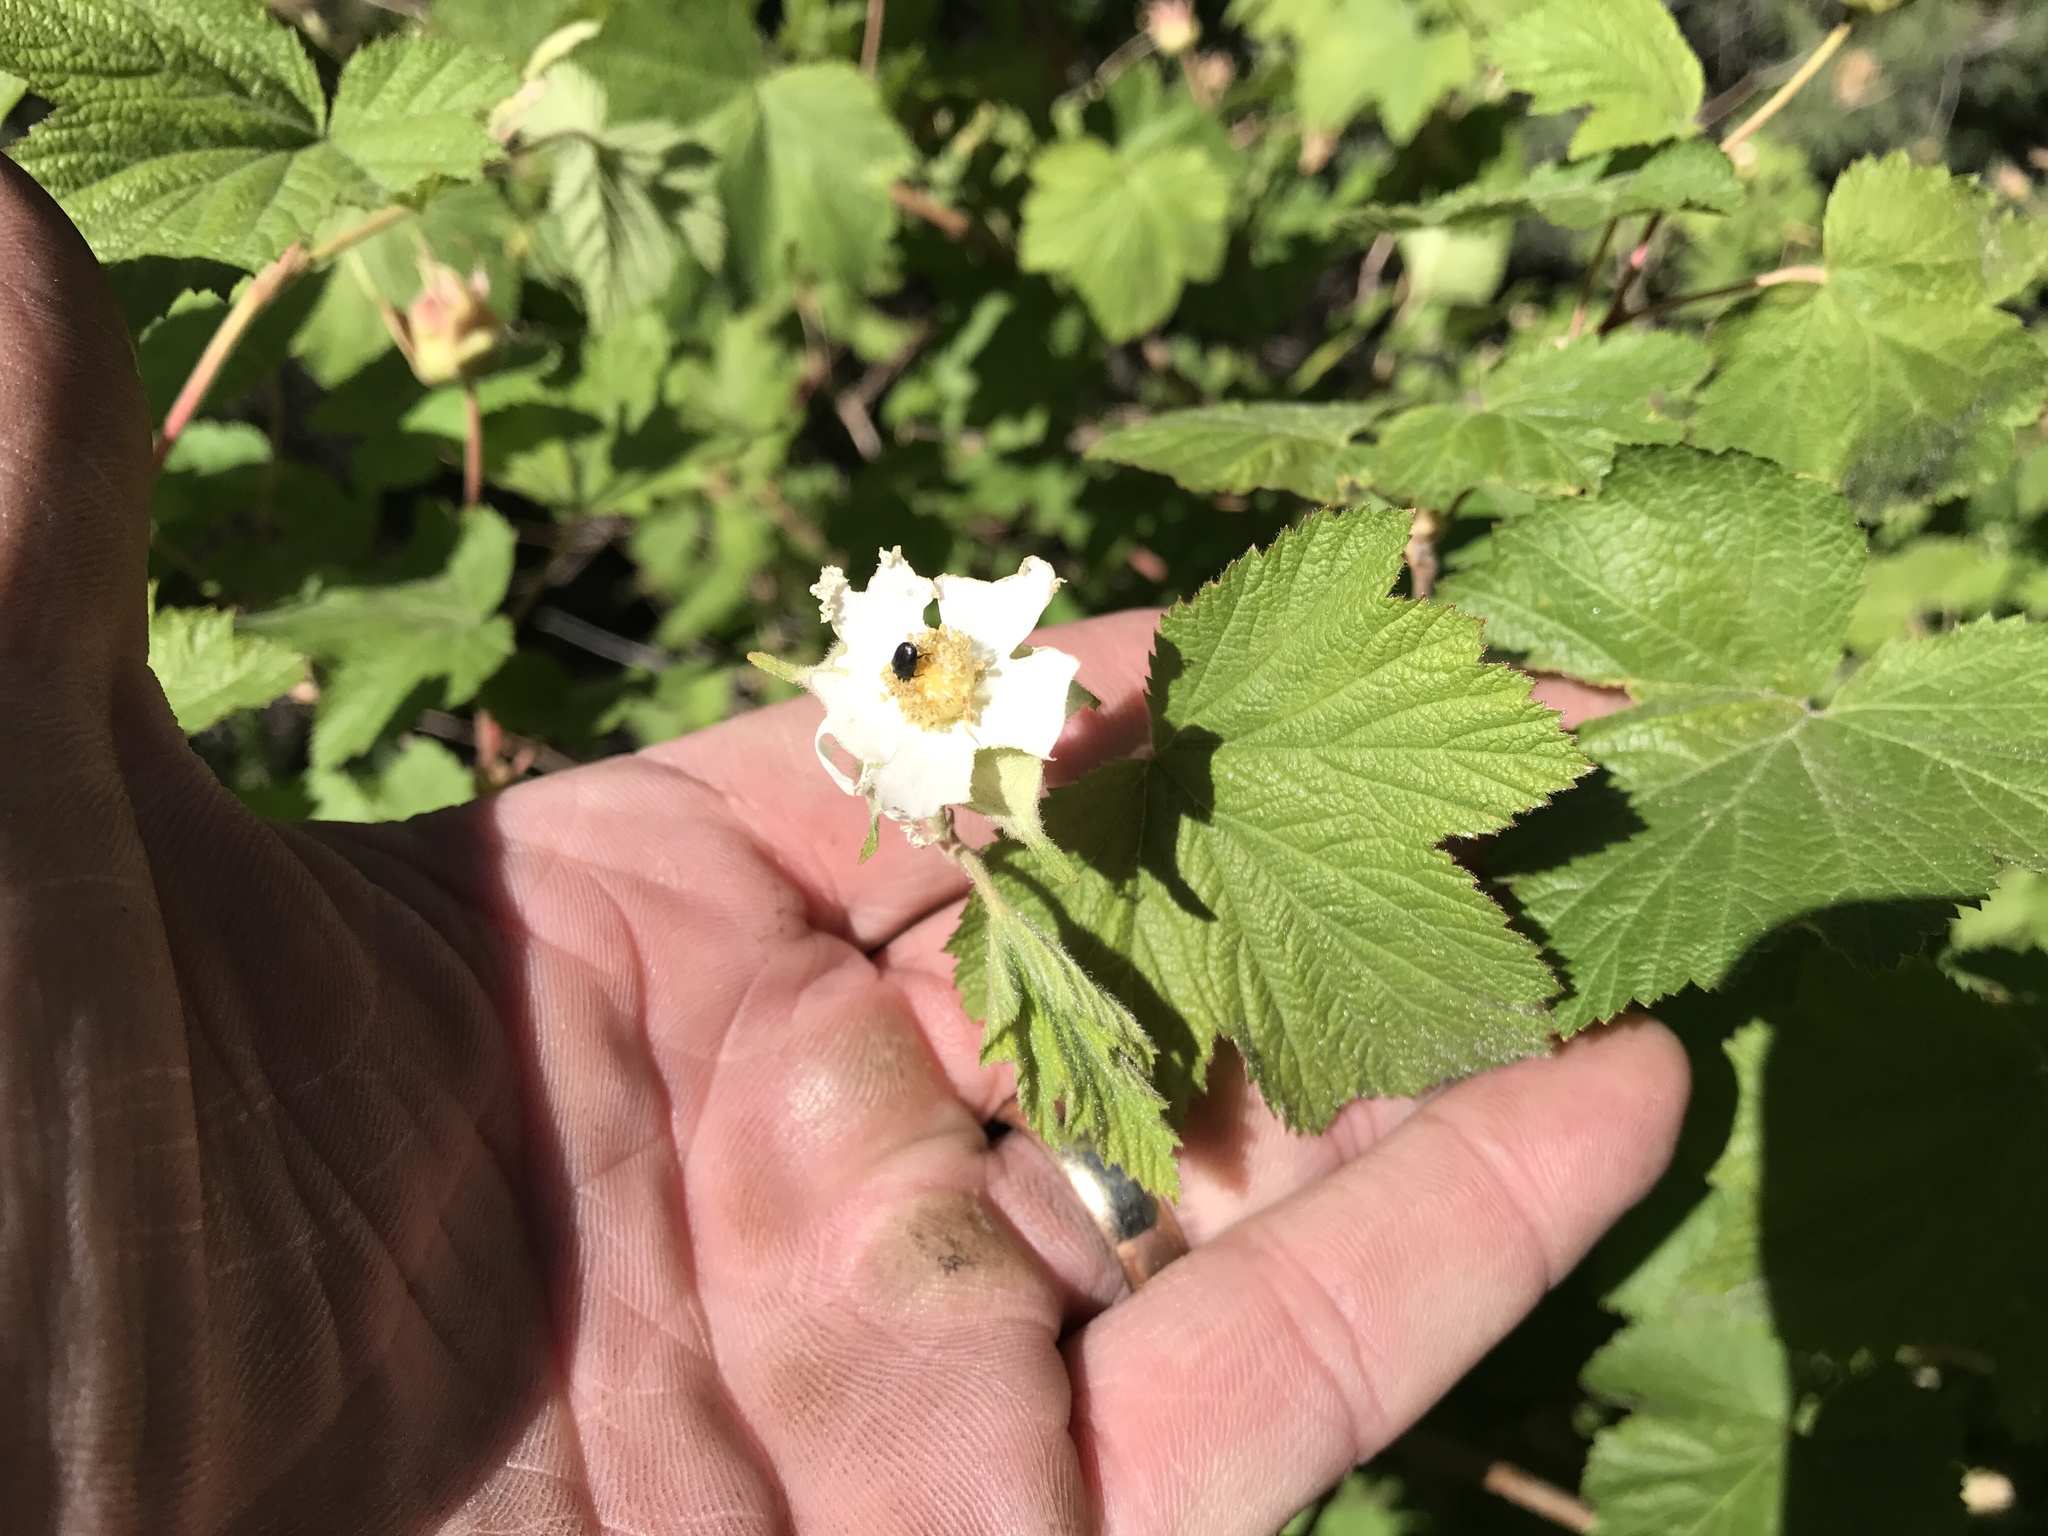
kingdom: Plantae
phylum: Tracheophyta
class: Magnoliopsida
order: Rosales
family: Rosaceae
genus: Rubus
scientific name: Rubus neomexicanus
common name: New mexico raspberry
